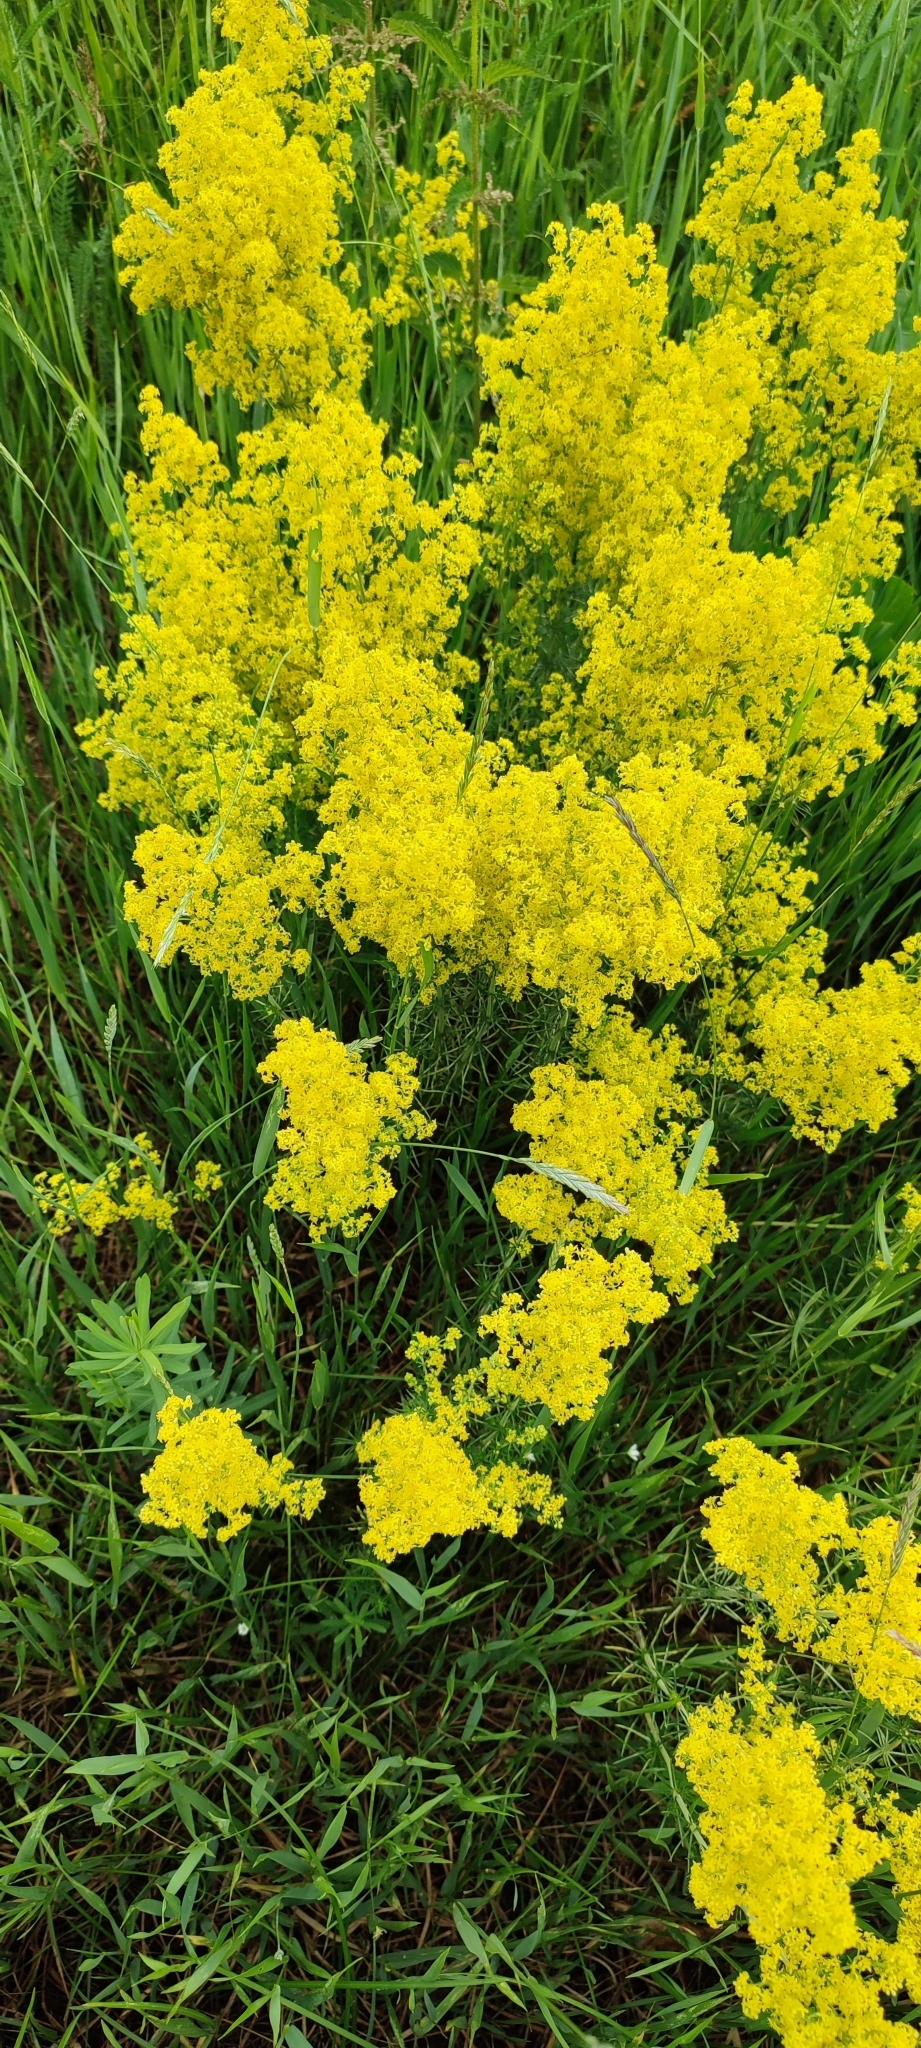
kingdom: Plantae
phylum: Tracheophyta
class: Magnoliopsida
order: Gentianales
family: Rubiaceae
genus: Galium
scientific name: Galium verum
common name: Lady's bedstraw
